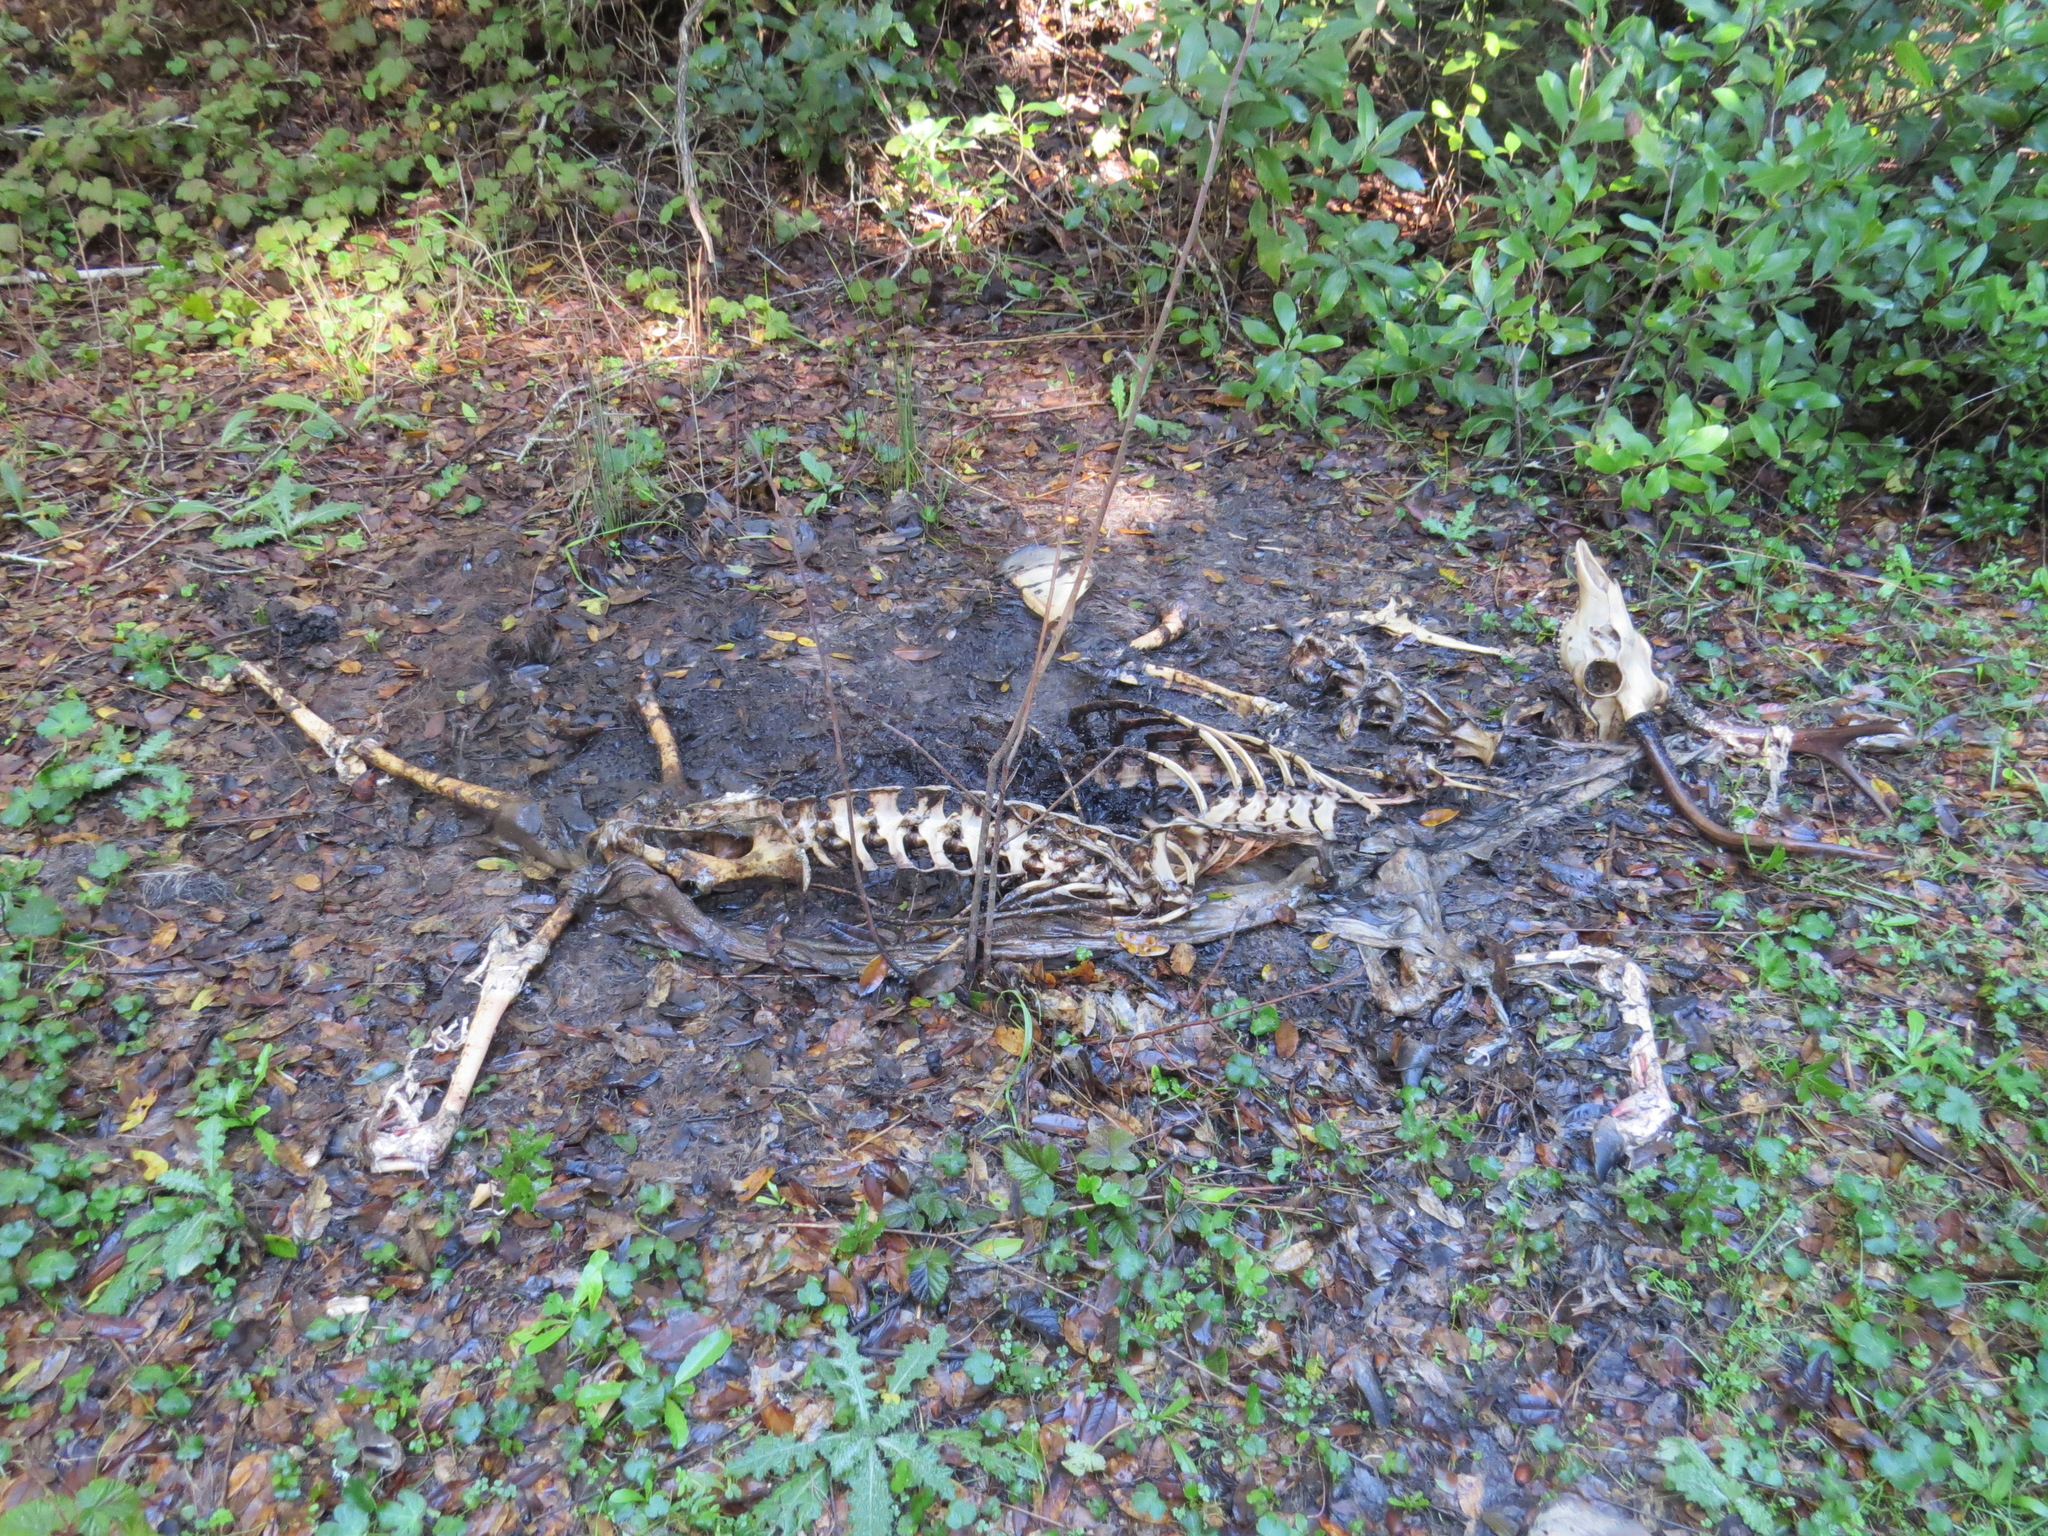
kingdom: Animalia
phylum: Chordata
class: Mammalia
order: Artiodactyla
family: Cervidae
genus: Odocoileus
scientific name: Odocoileus hemionus
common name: Mule deer
